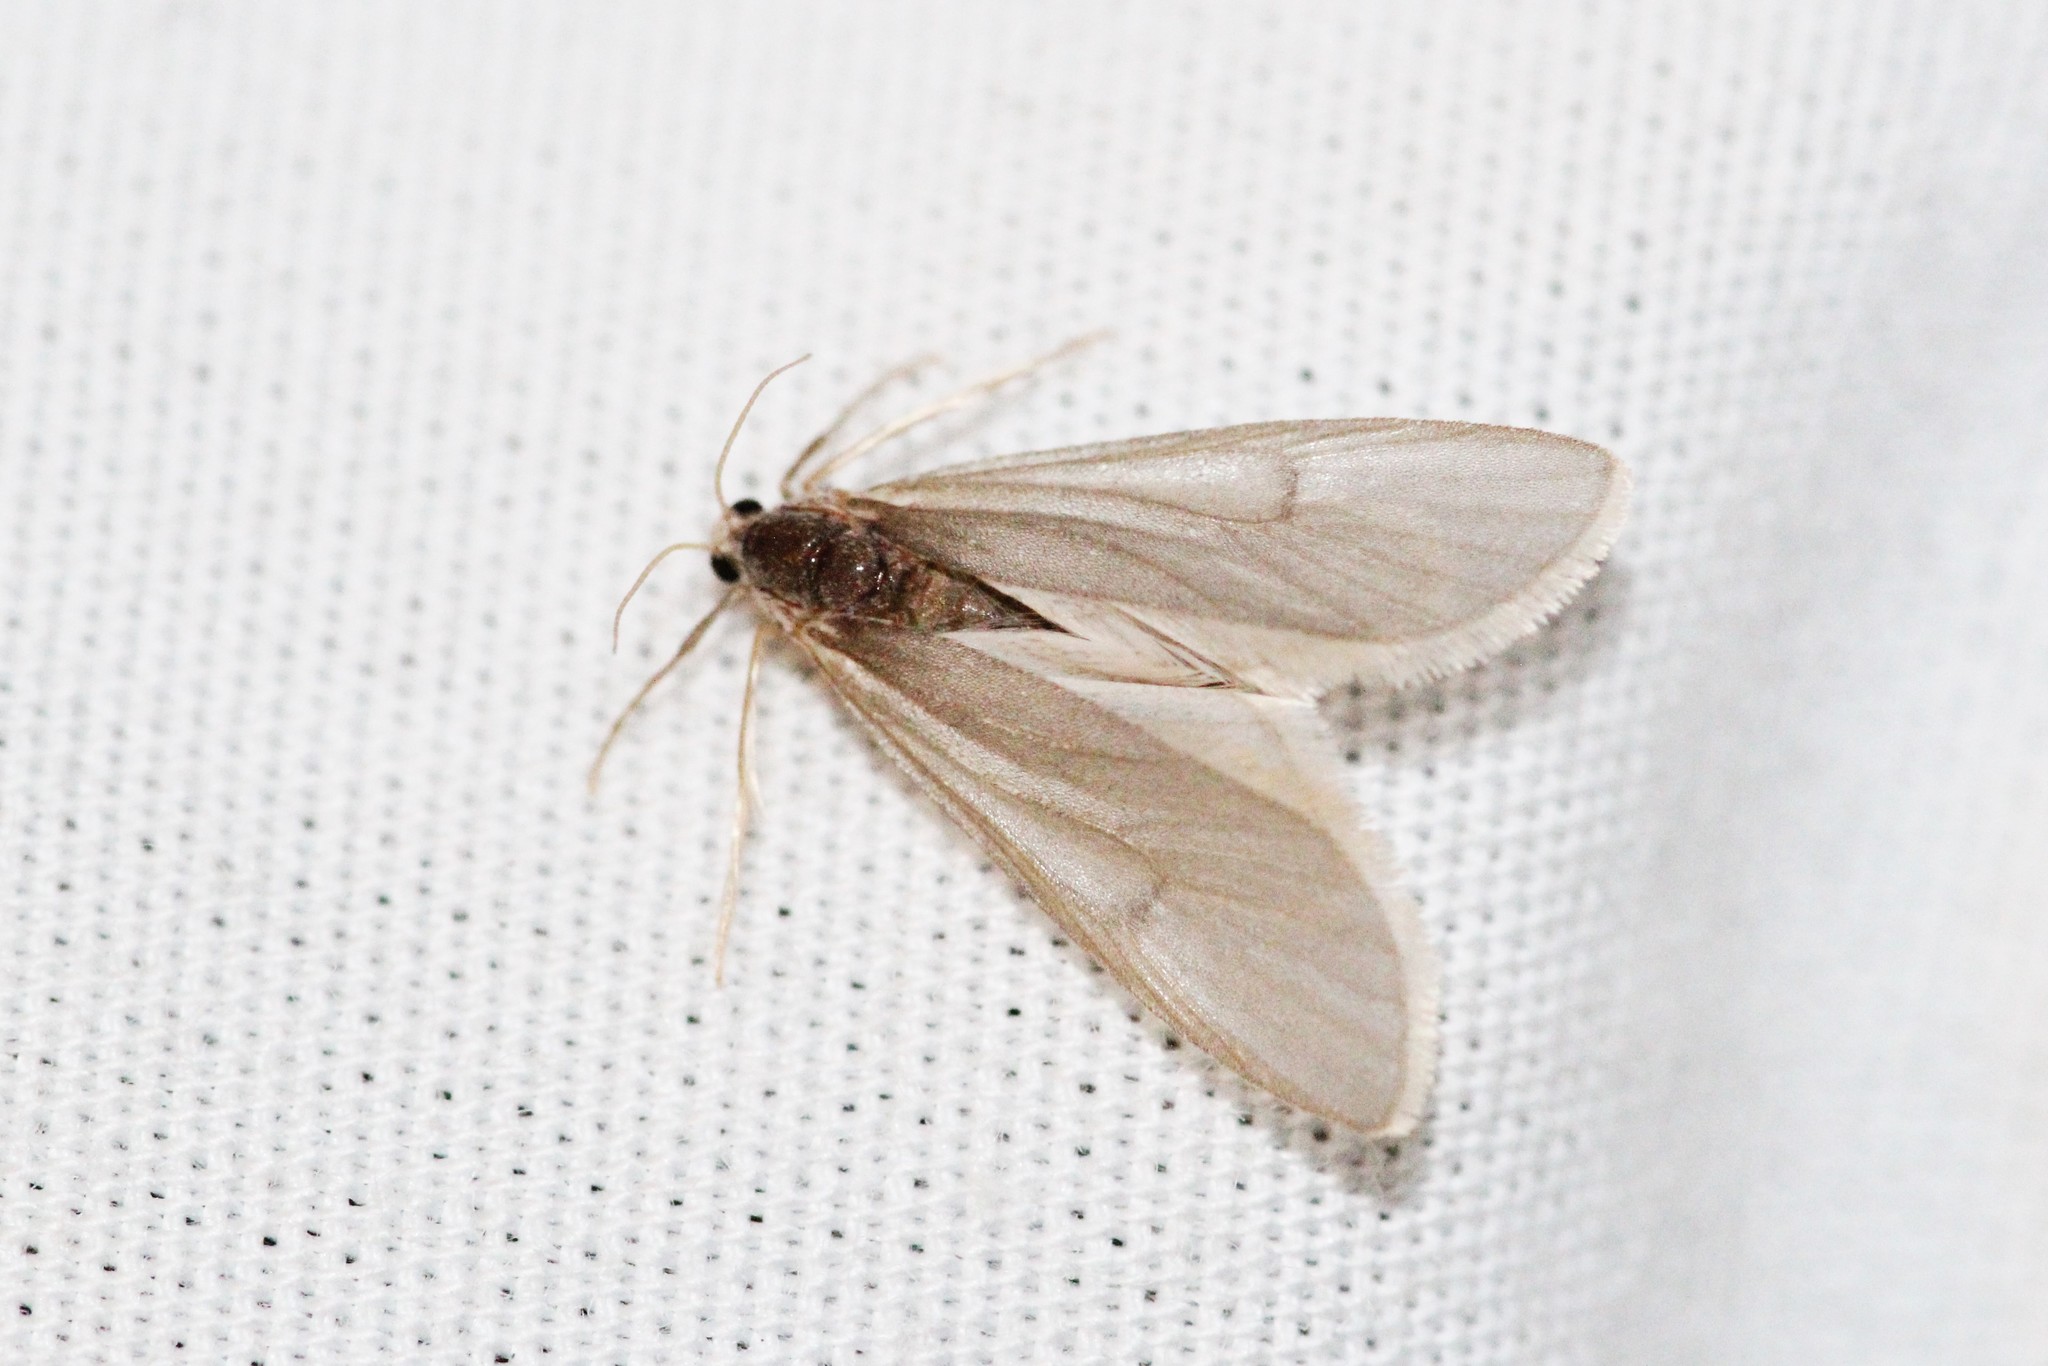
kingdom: Animalia
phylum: Arthropoda
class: Insecta
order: Lepidoptera
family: Crambidae
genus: Acentria
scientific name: Acentria ephemerella
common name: European water moth
